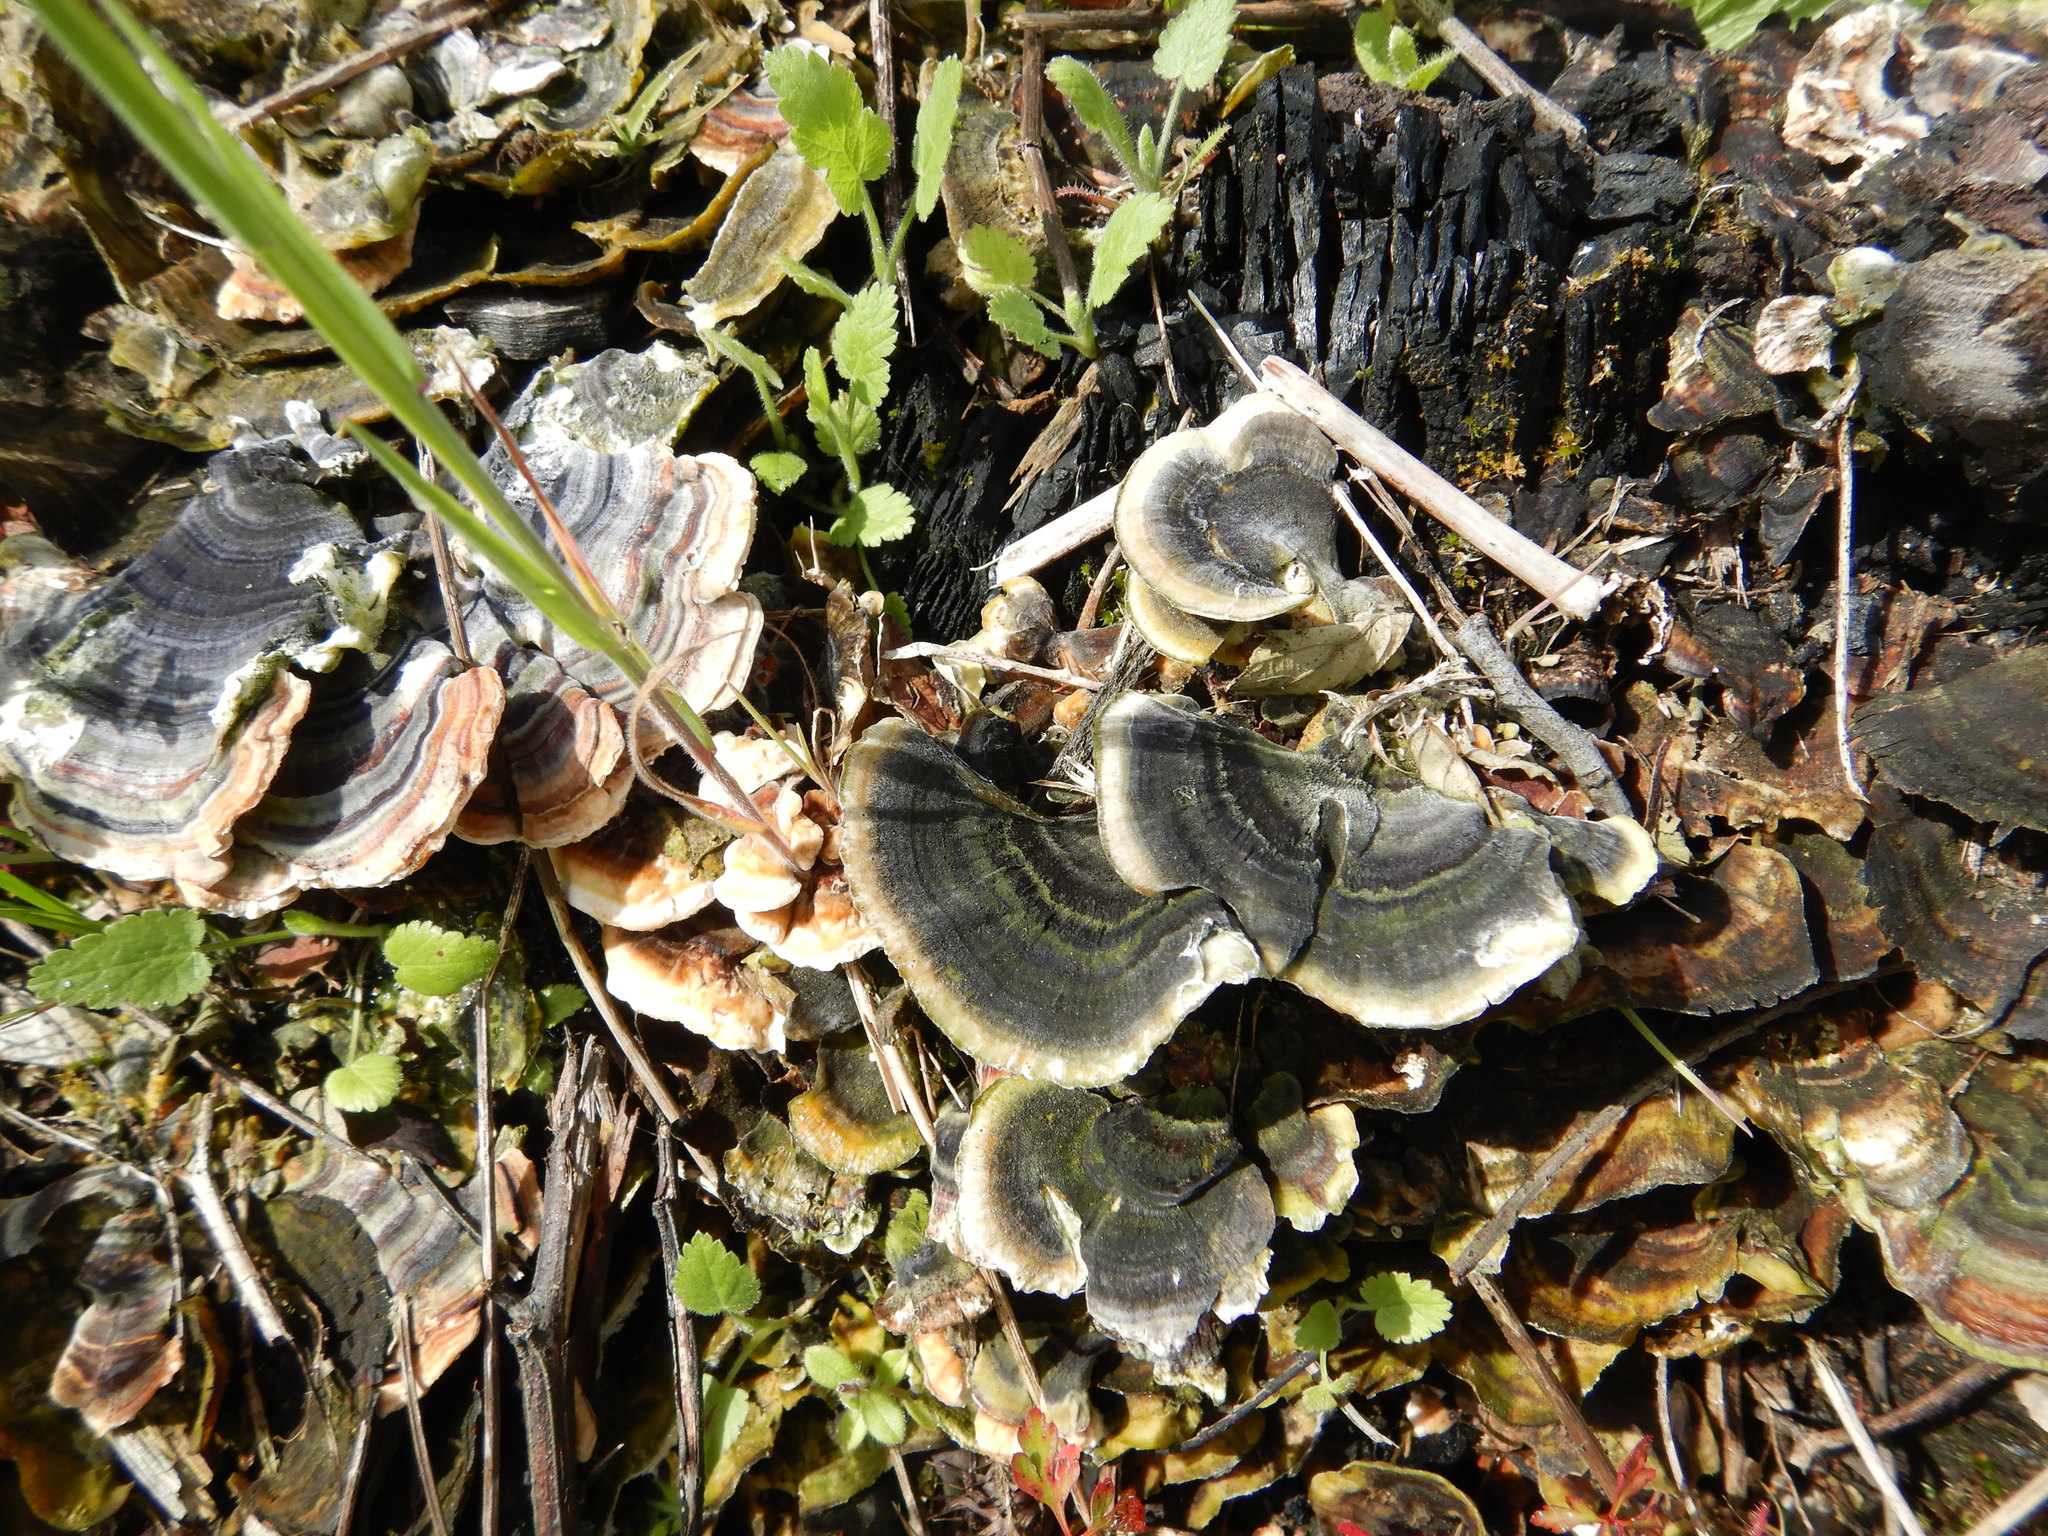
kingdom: Fungi
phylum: Basidiomycota
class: Agaricomycetes
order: Polyporales
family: Polyporaceae
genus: Trametes
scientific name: Trametes versicolor
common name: Turkeytail
